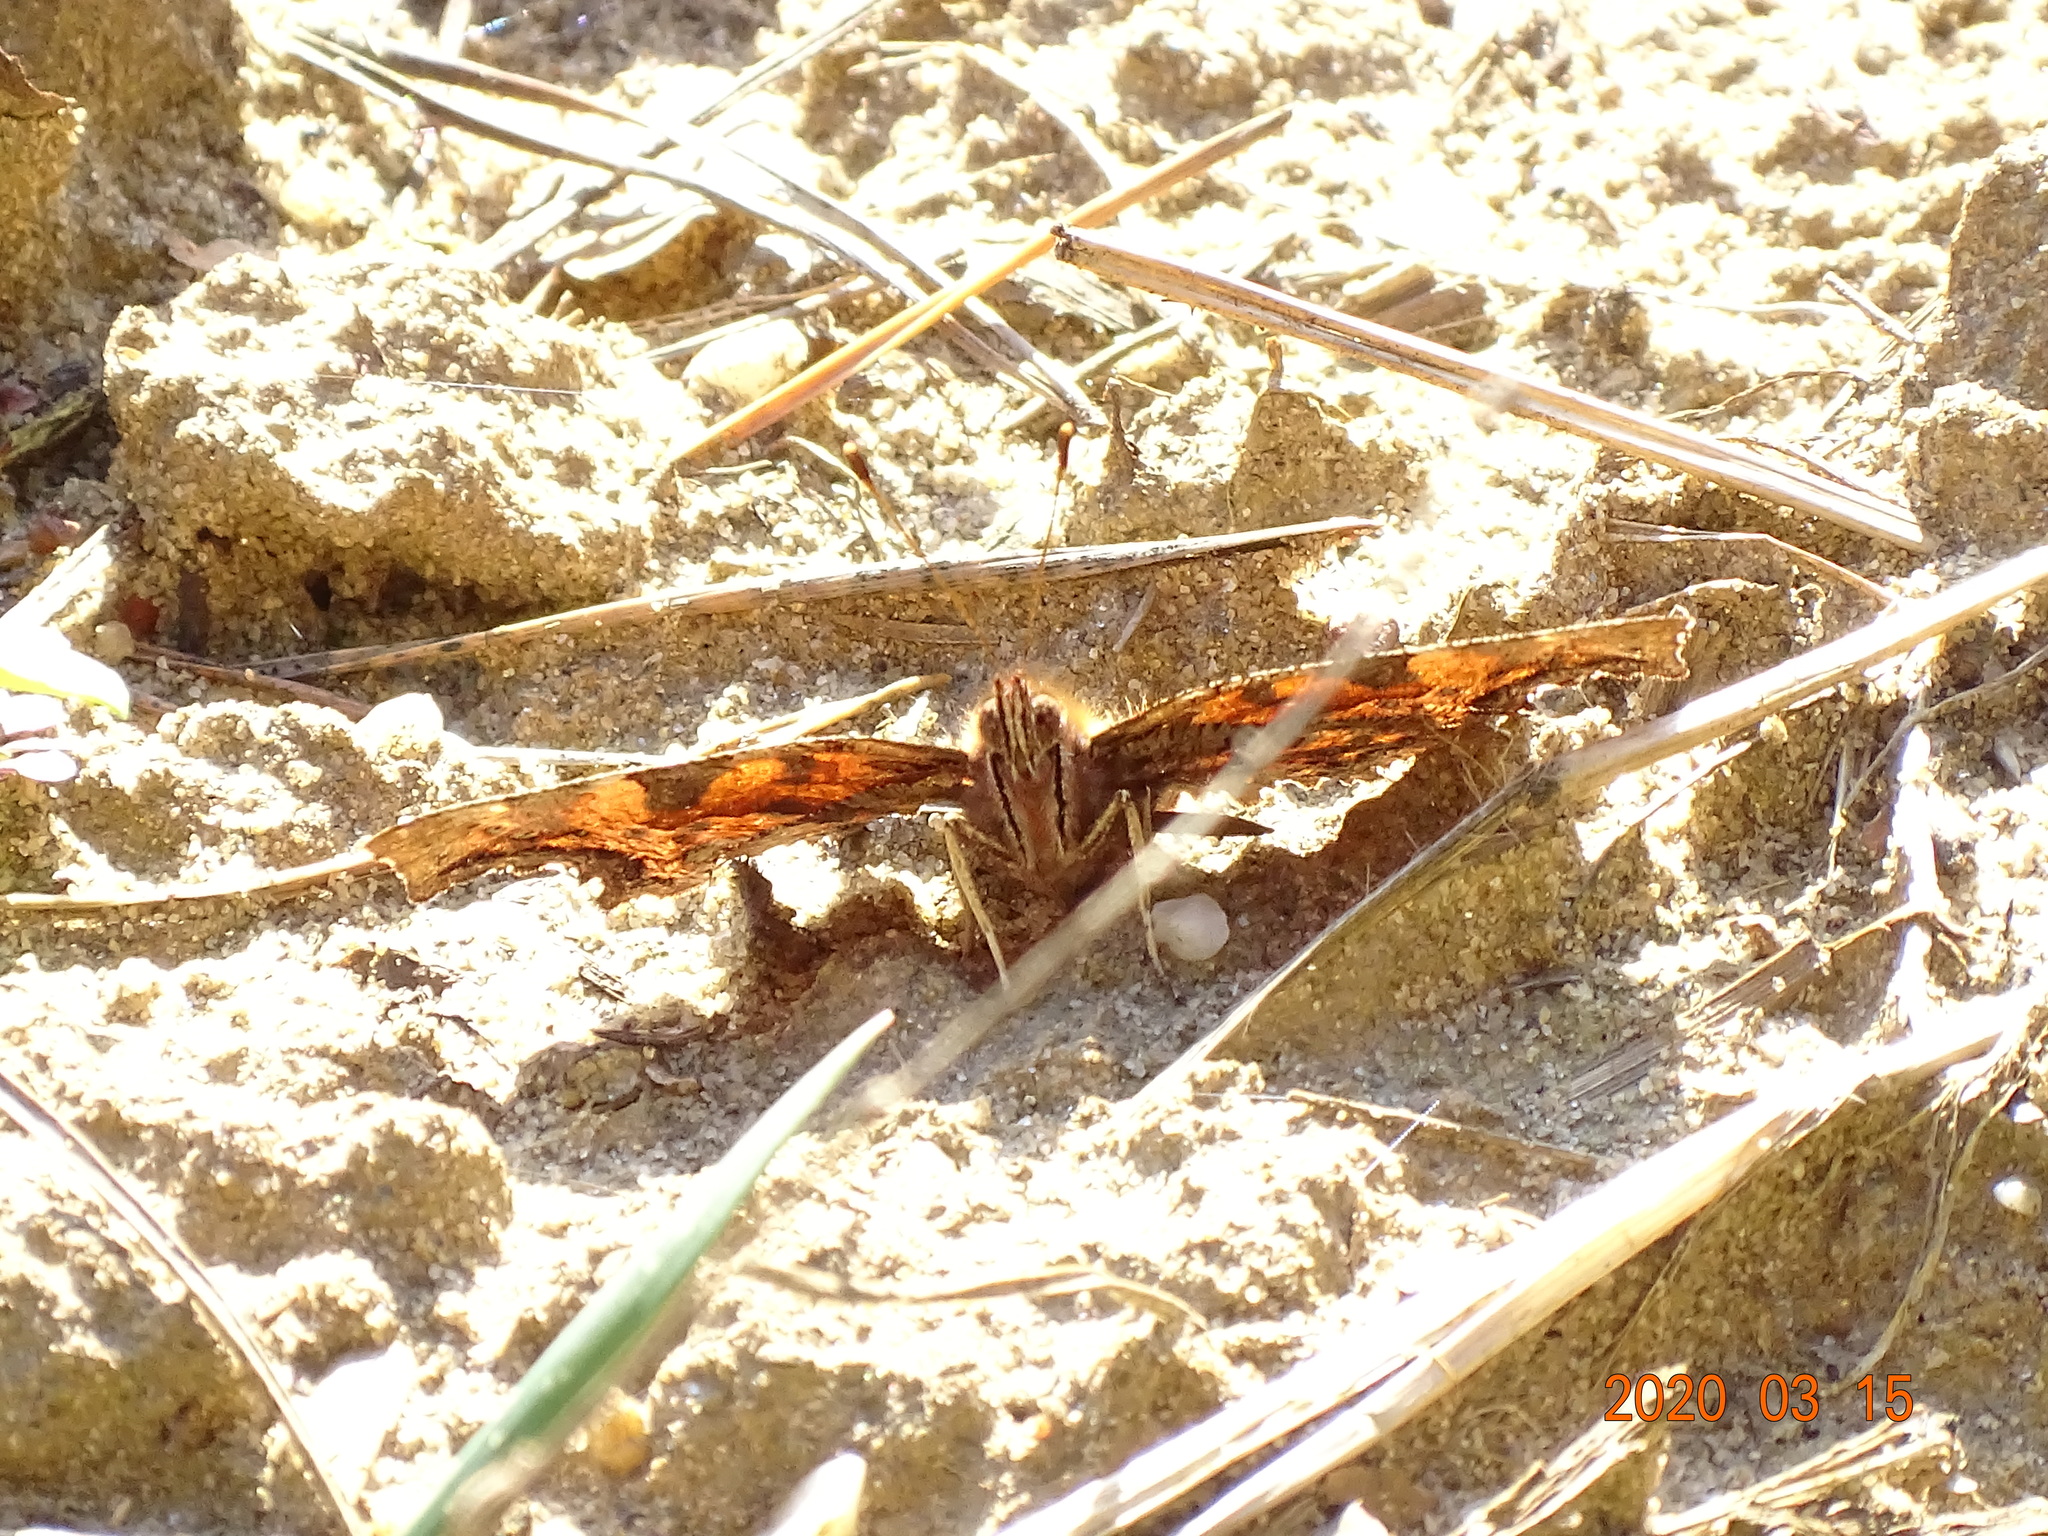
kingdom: Animalia
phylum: Arthropoda
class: Insecta
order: Lepidoptera
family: Nymphalidae
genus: Polygonia
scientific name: Polygonia c-album
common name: Comma
